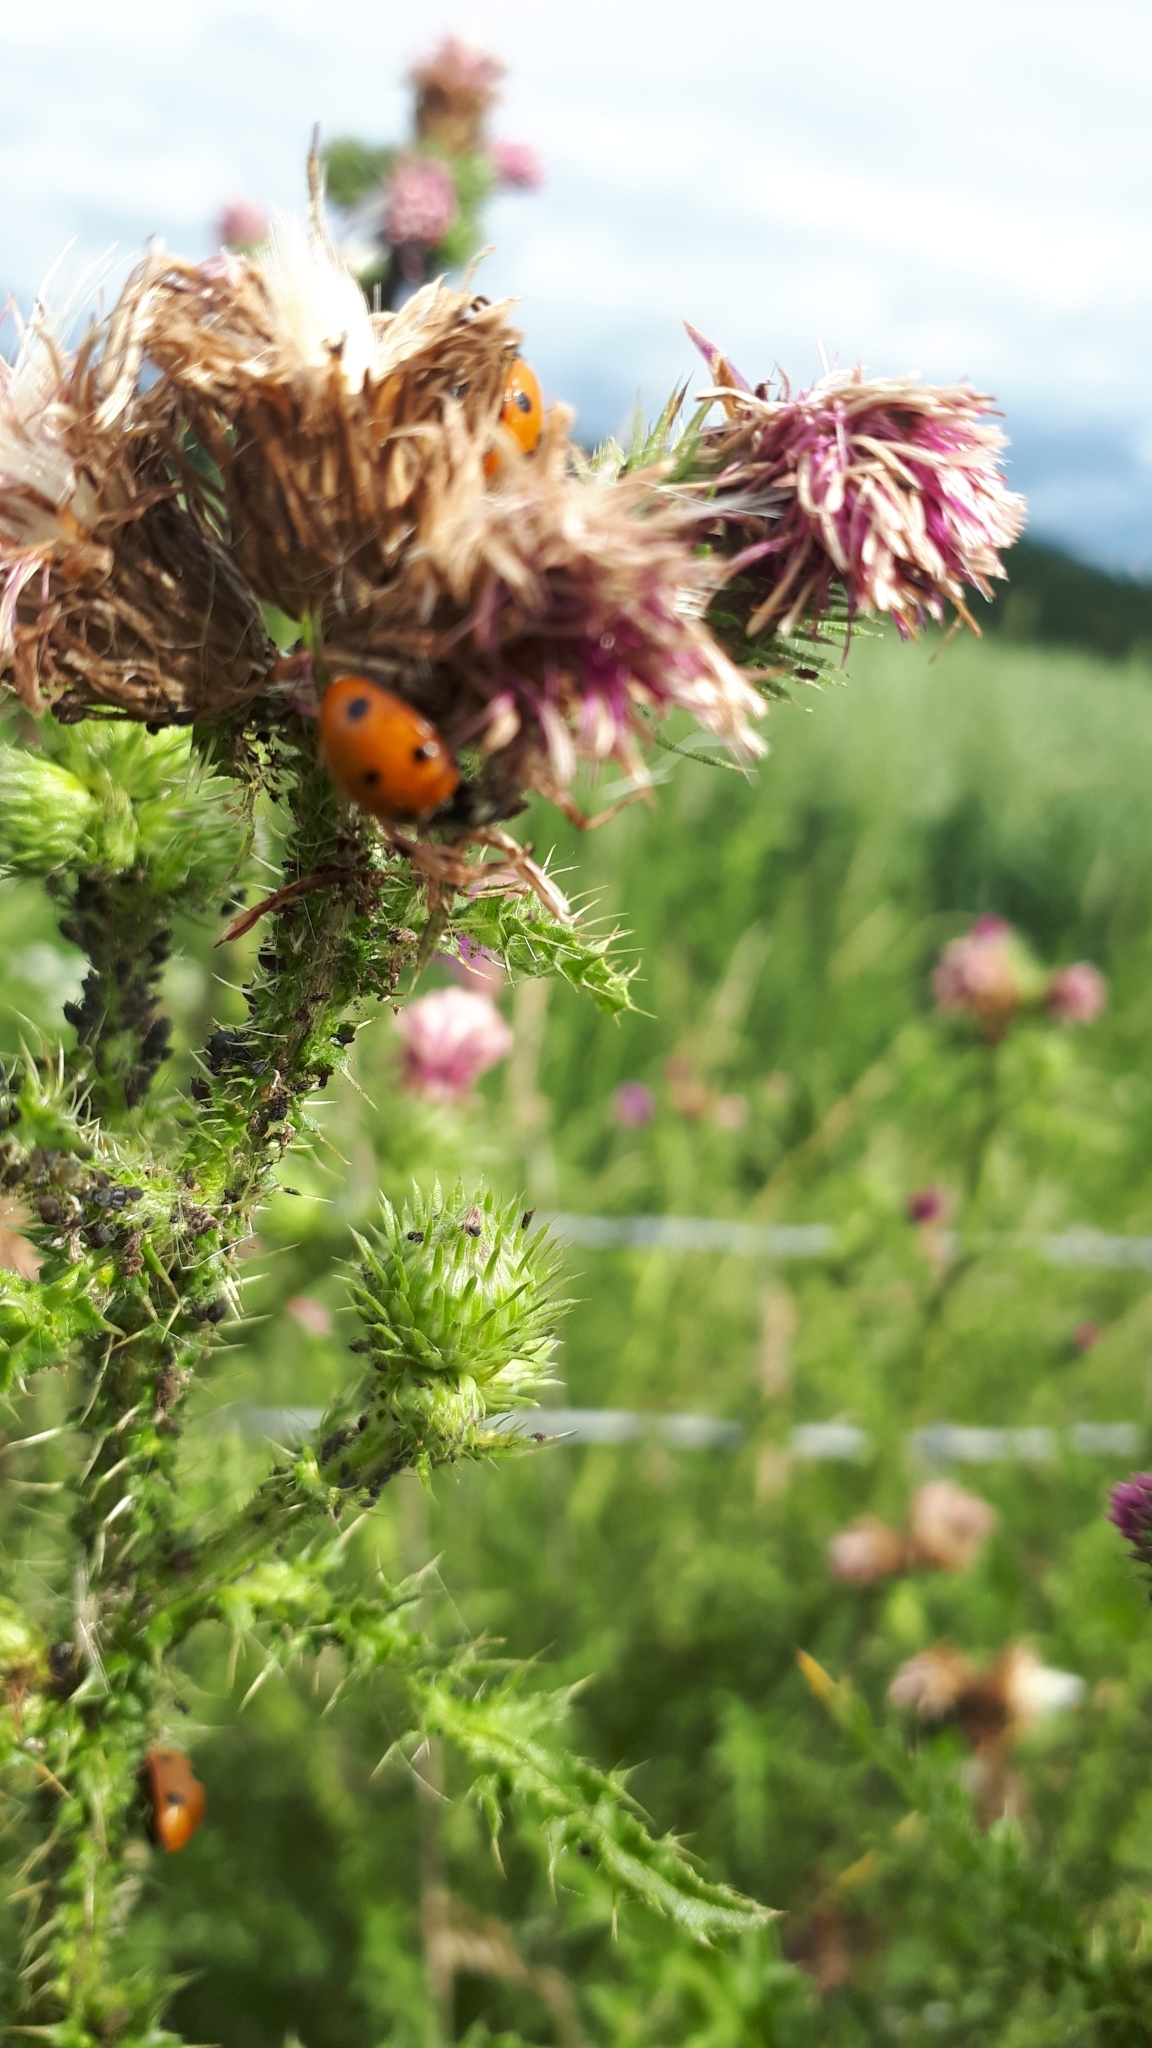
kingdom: Animalia
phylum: Arthropoda
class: Insecta
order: Coleoptera
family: Coccinellidae
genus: Coccinella
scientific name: Coccinella septempunctata
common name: Sevenspotted lady beetle
